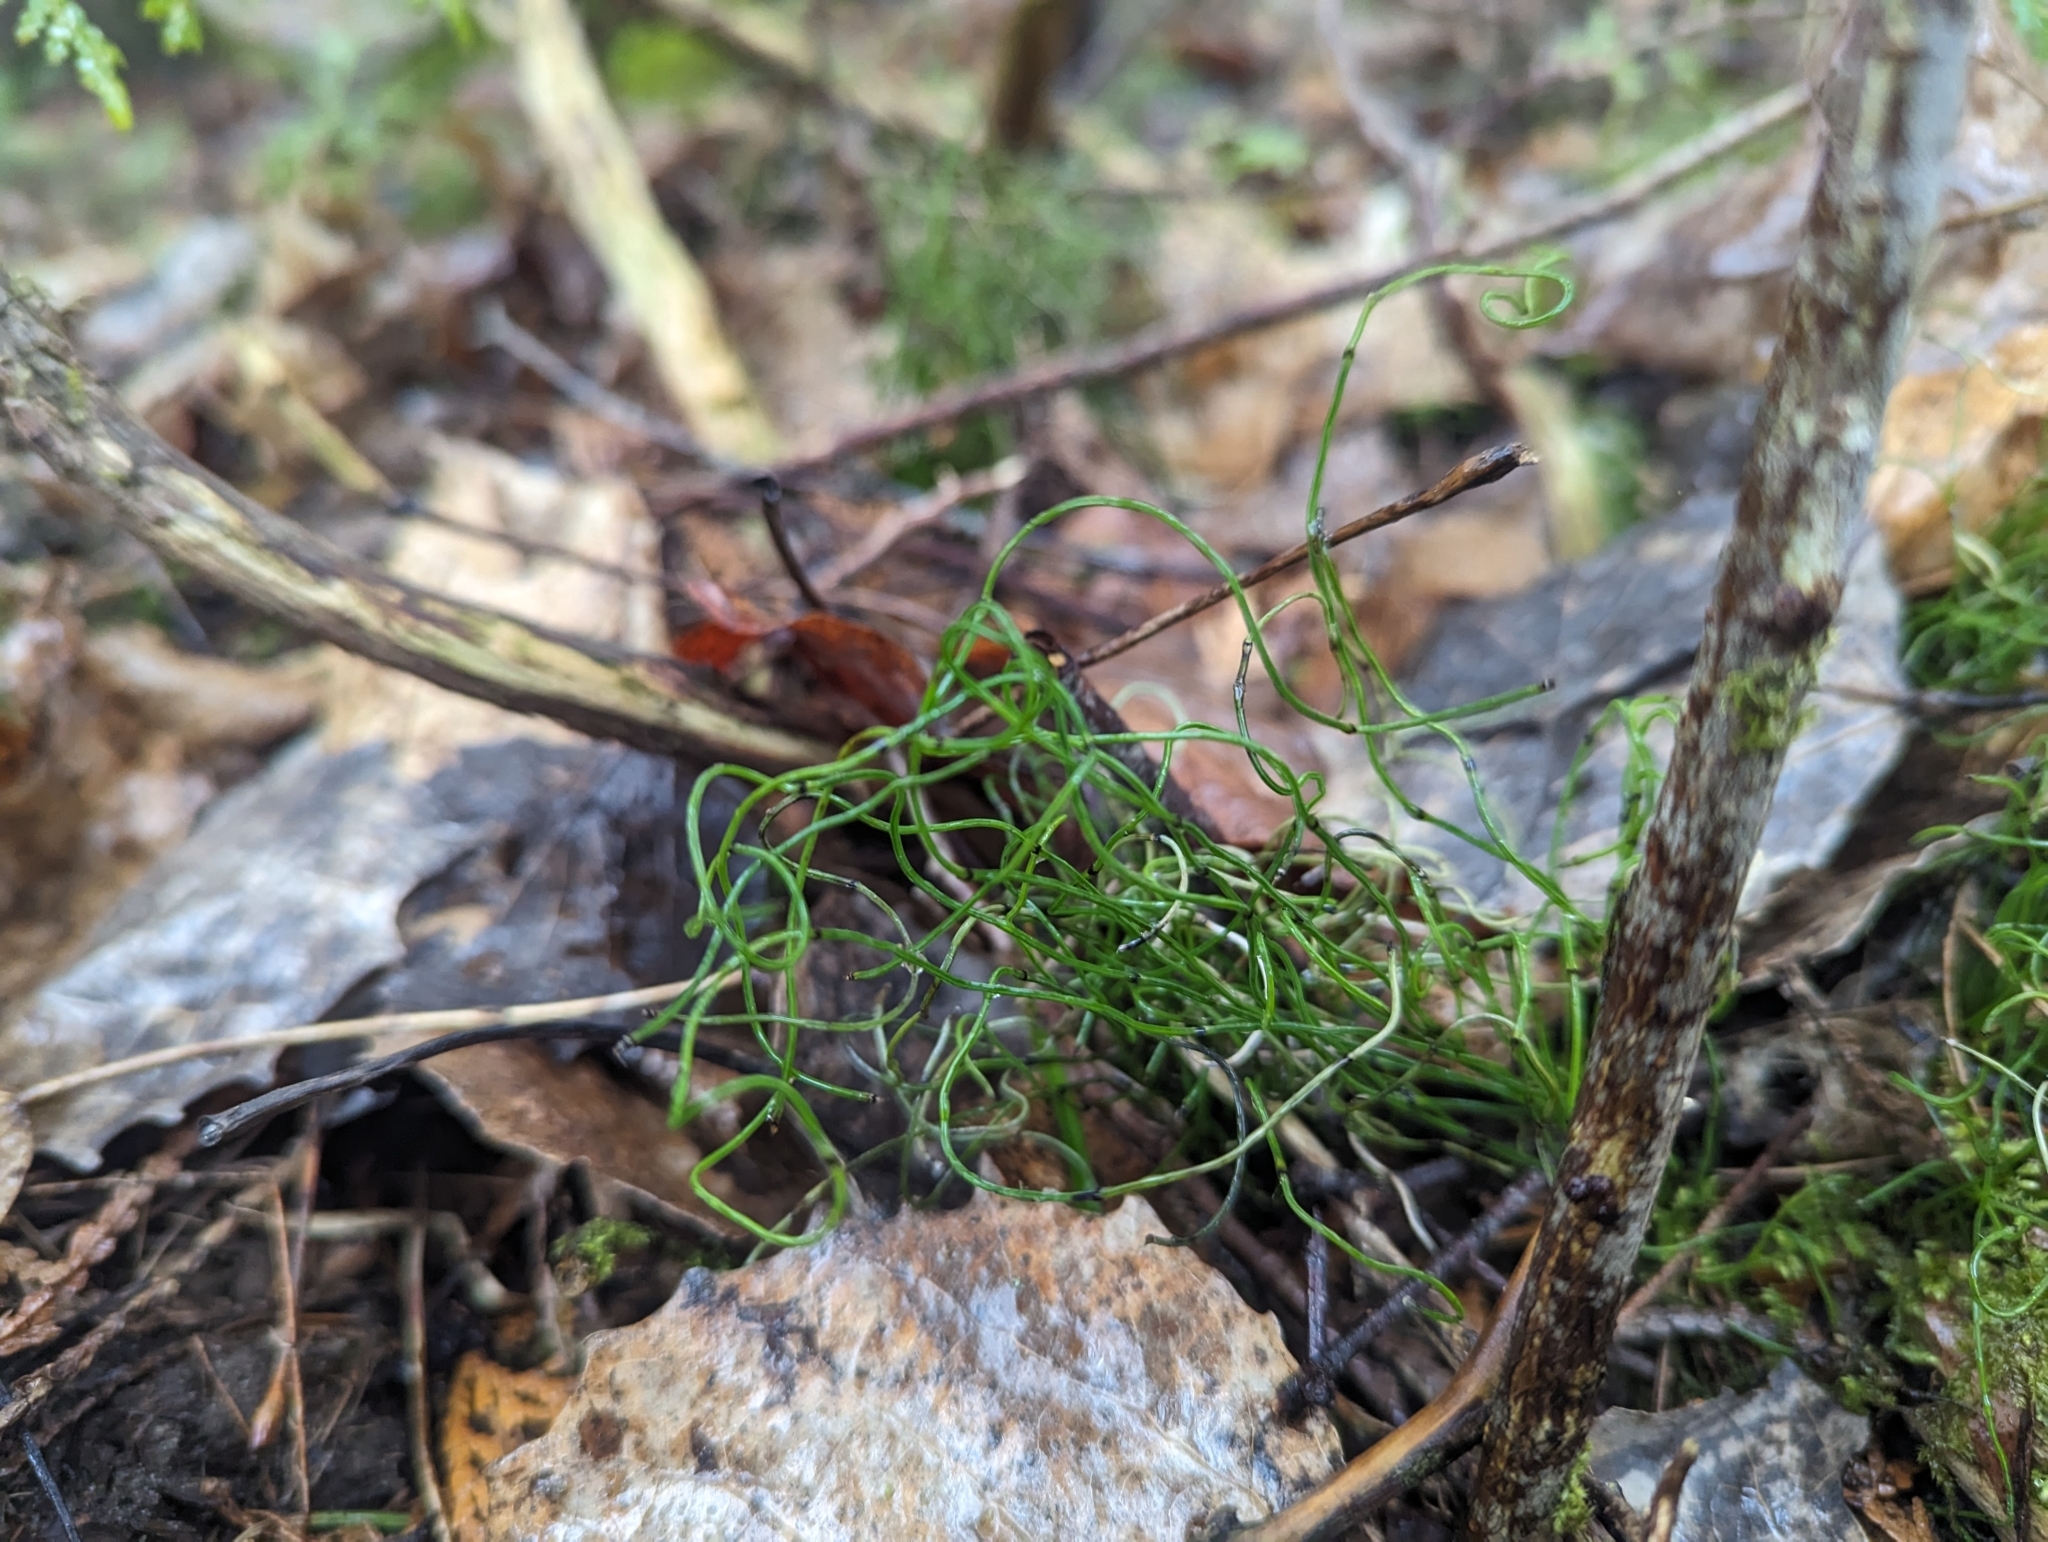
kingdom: Plantae
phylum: Tracheophyta
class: Polypodiopsida
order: Equisetales
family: Equisetaceae
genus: Equisetum
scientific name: Equisetum scirpoides
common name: Delicate horsetail
